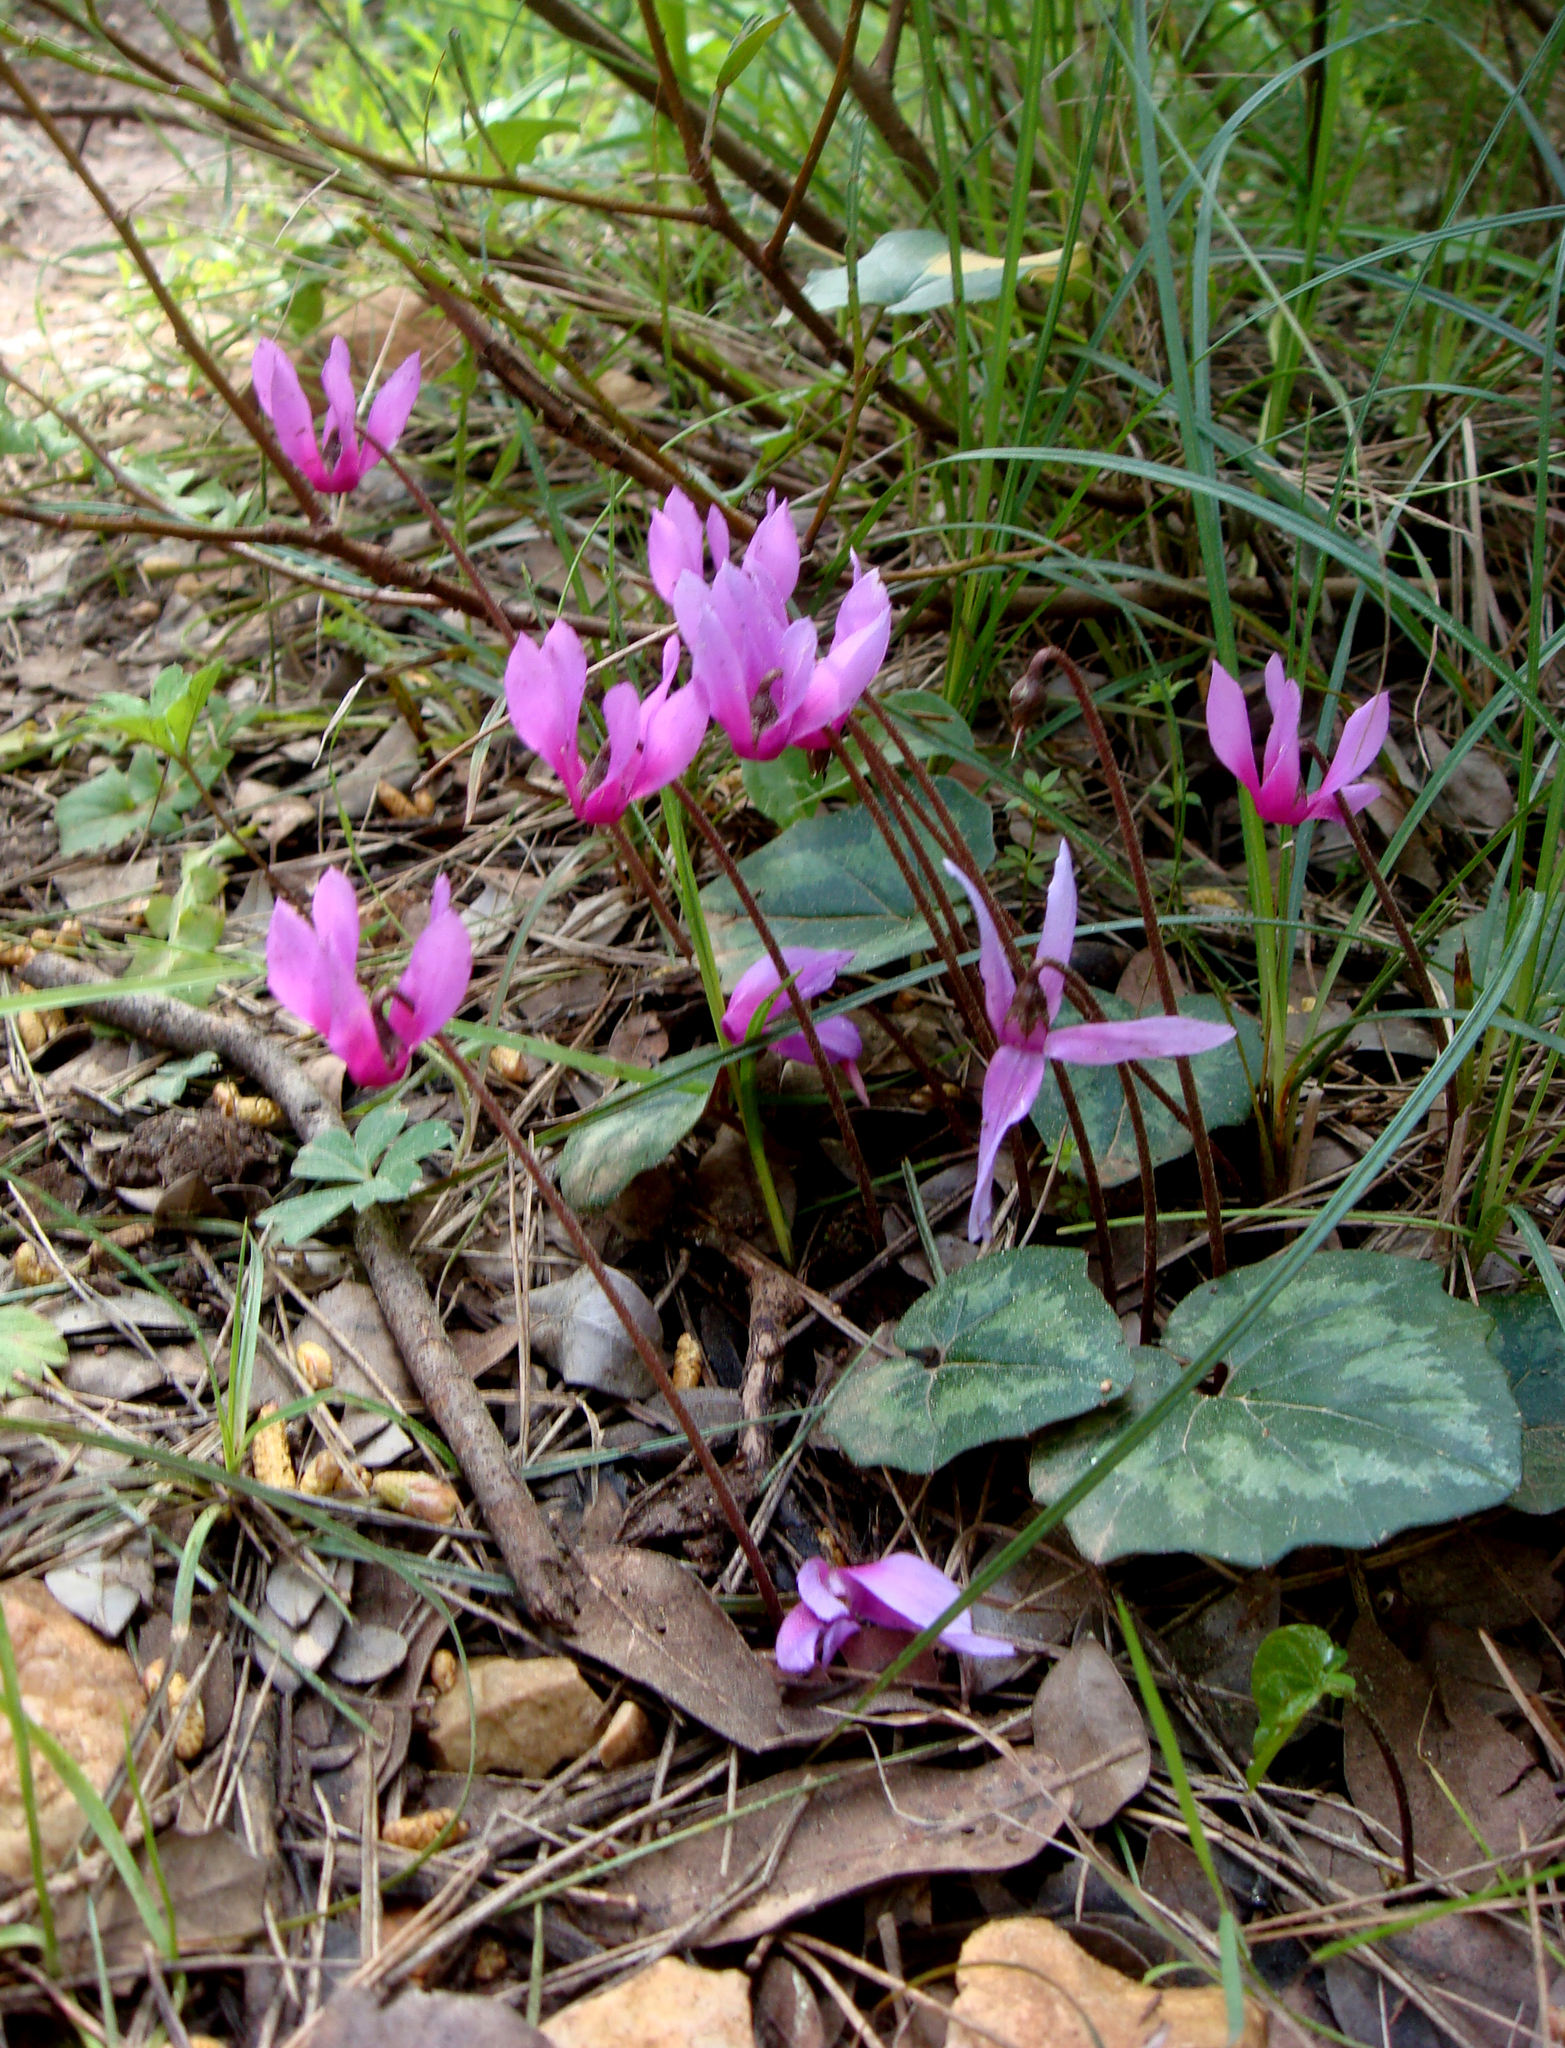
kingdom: Plantae
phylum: Tracheophyta
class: Magnoliopsida
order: Ericales
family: Primulaceae
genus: Cyclamen
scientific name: Cyclamen repandum
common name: Spring sowbread
